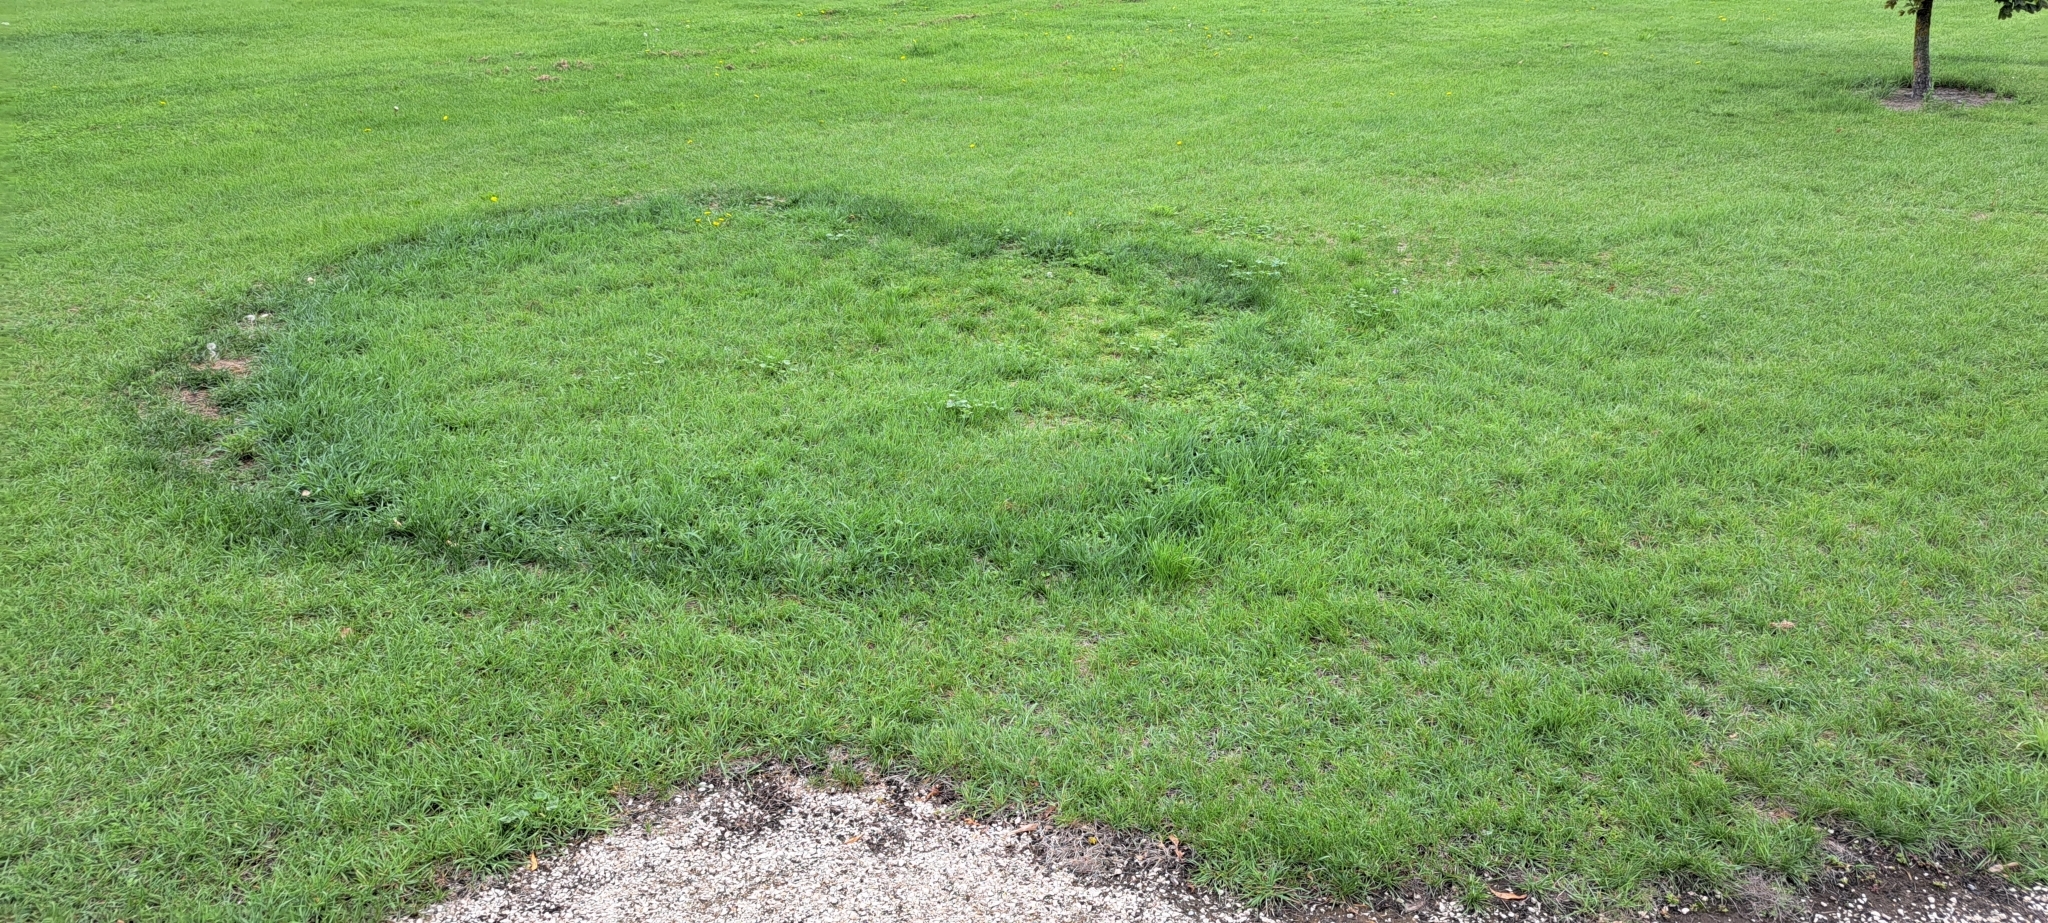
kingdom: Fungi
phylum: Basidiomycota
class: Agaricomycetes
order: Agaricales
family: Marasmiaceae
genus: Marasmius
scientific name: Marasmius oreades
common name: Fairy ring champignon
